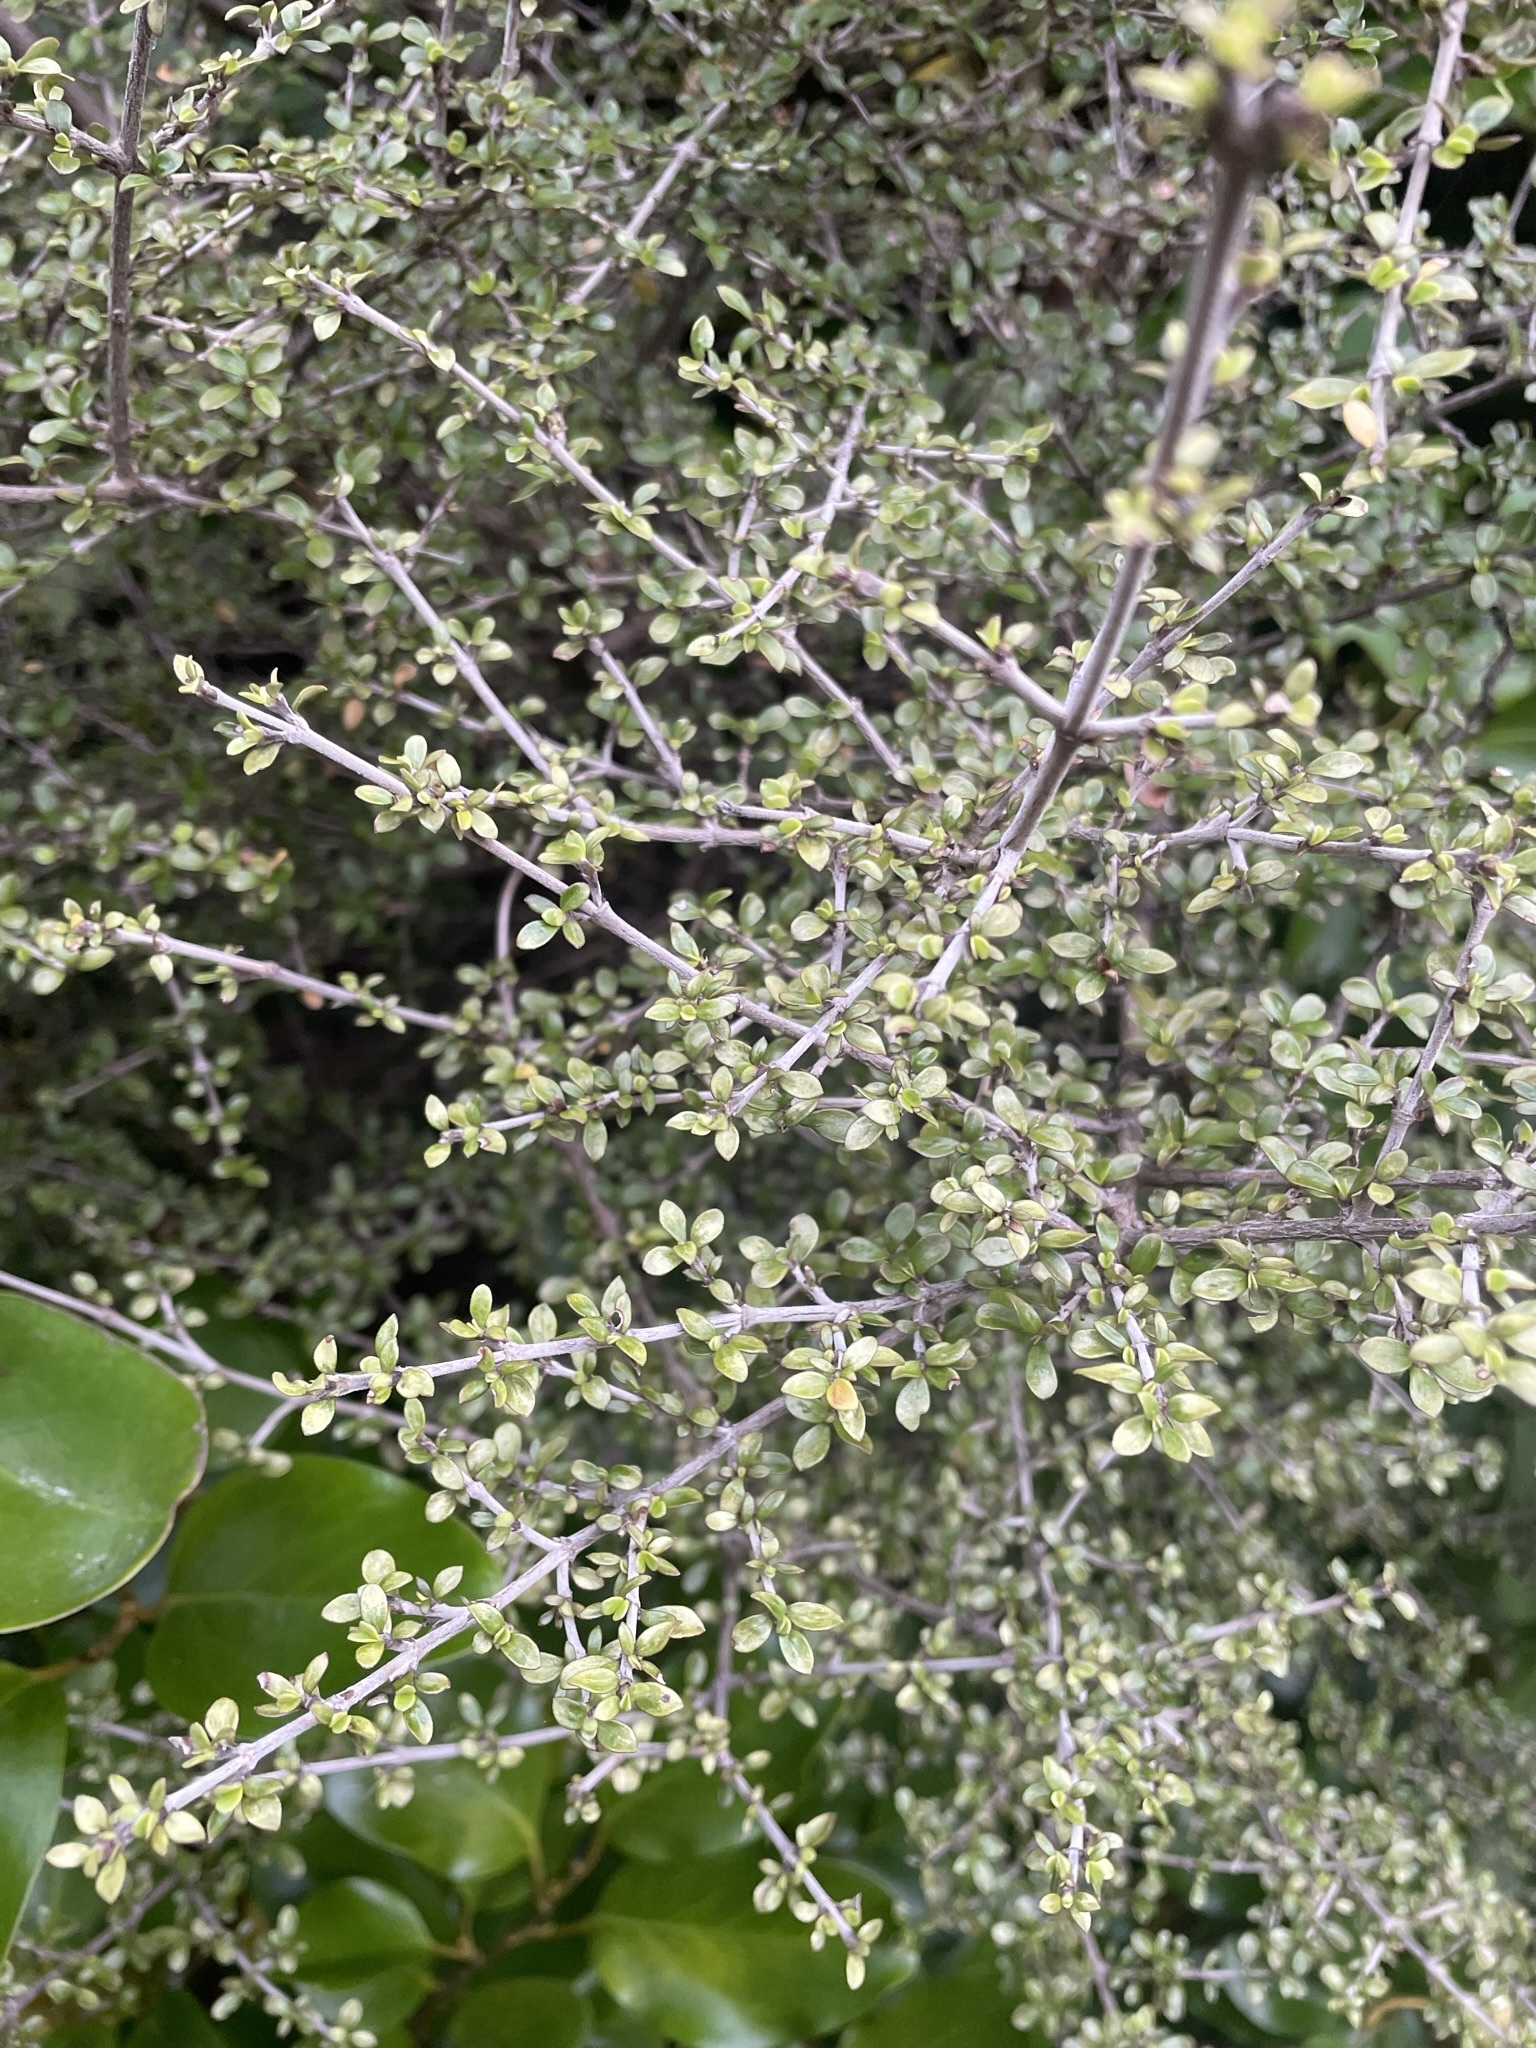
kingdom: Plantae
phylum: Tracheophyta
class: Magnoliopsida
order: Gentianales
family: Rubiaceae
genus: Coprosma
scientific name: Coprosma dumosa
